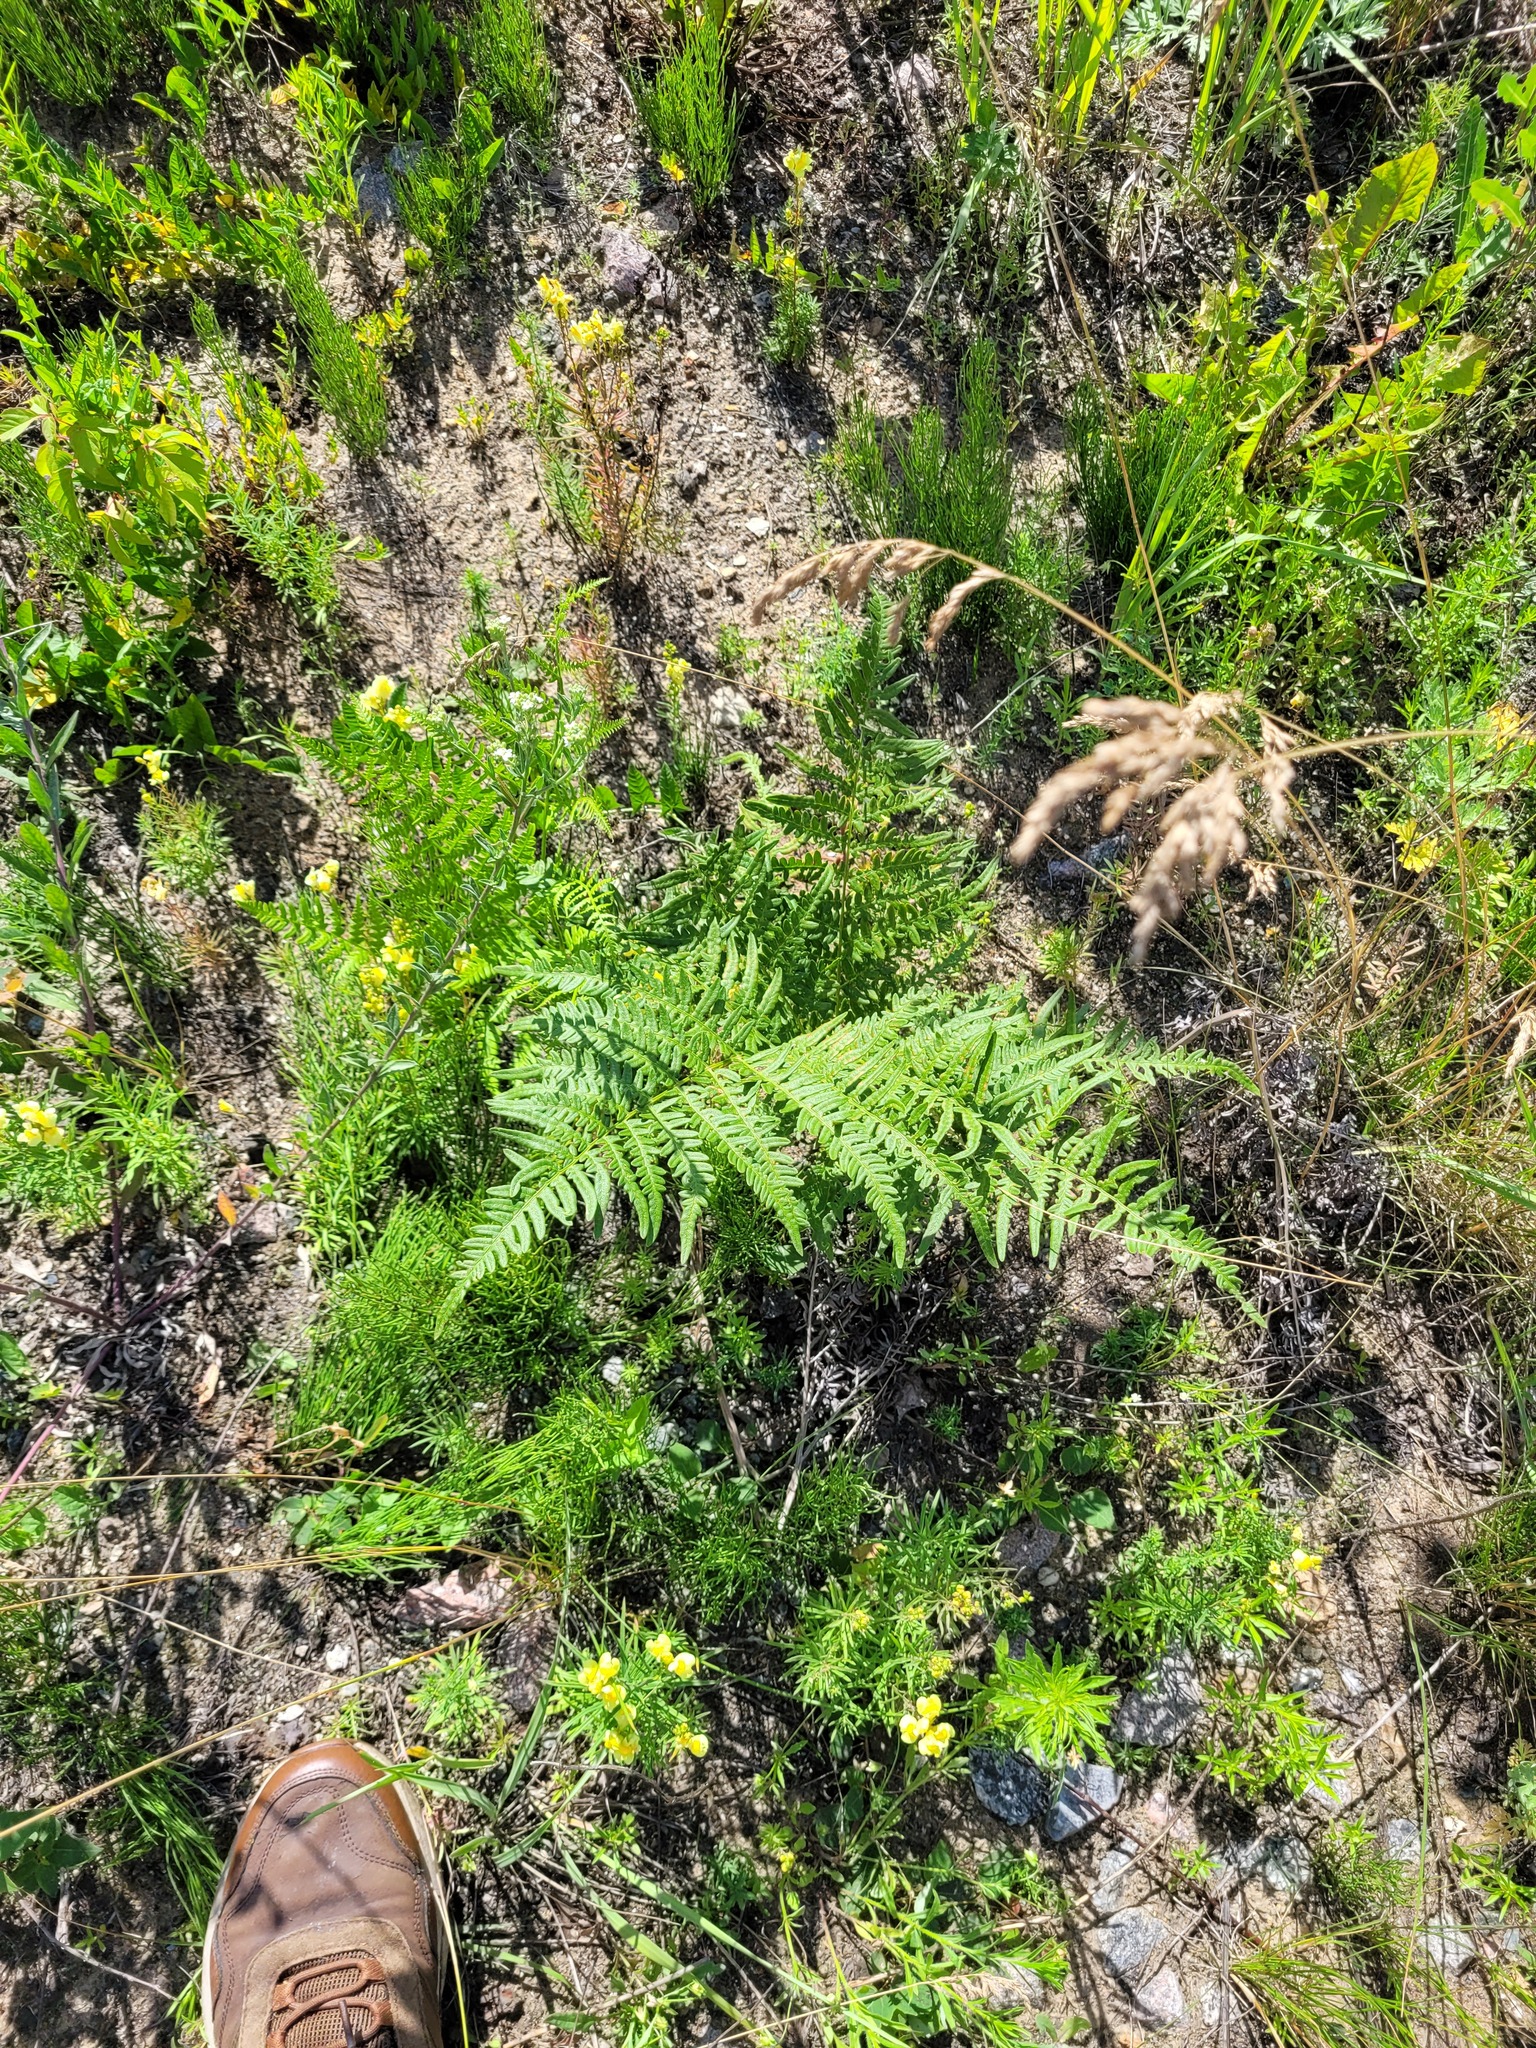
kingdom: Plantae
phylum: Tracheophyta
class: Polypodiopsida
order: Polypodiales
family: Dennstaedtiaceae
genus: Pteridium
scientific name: Pteridium aquilinum
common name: Bracken
